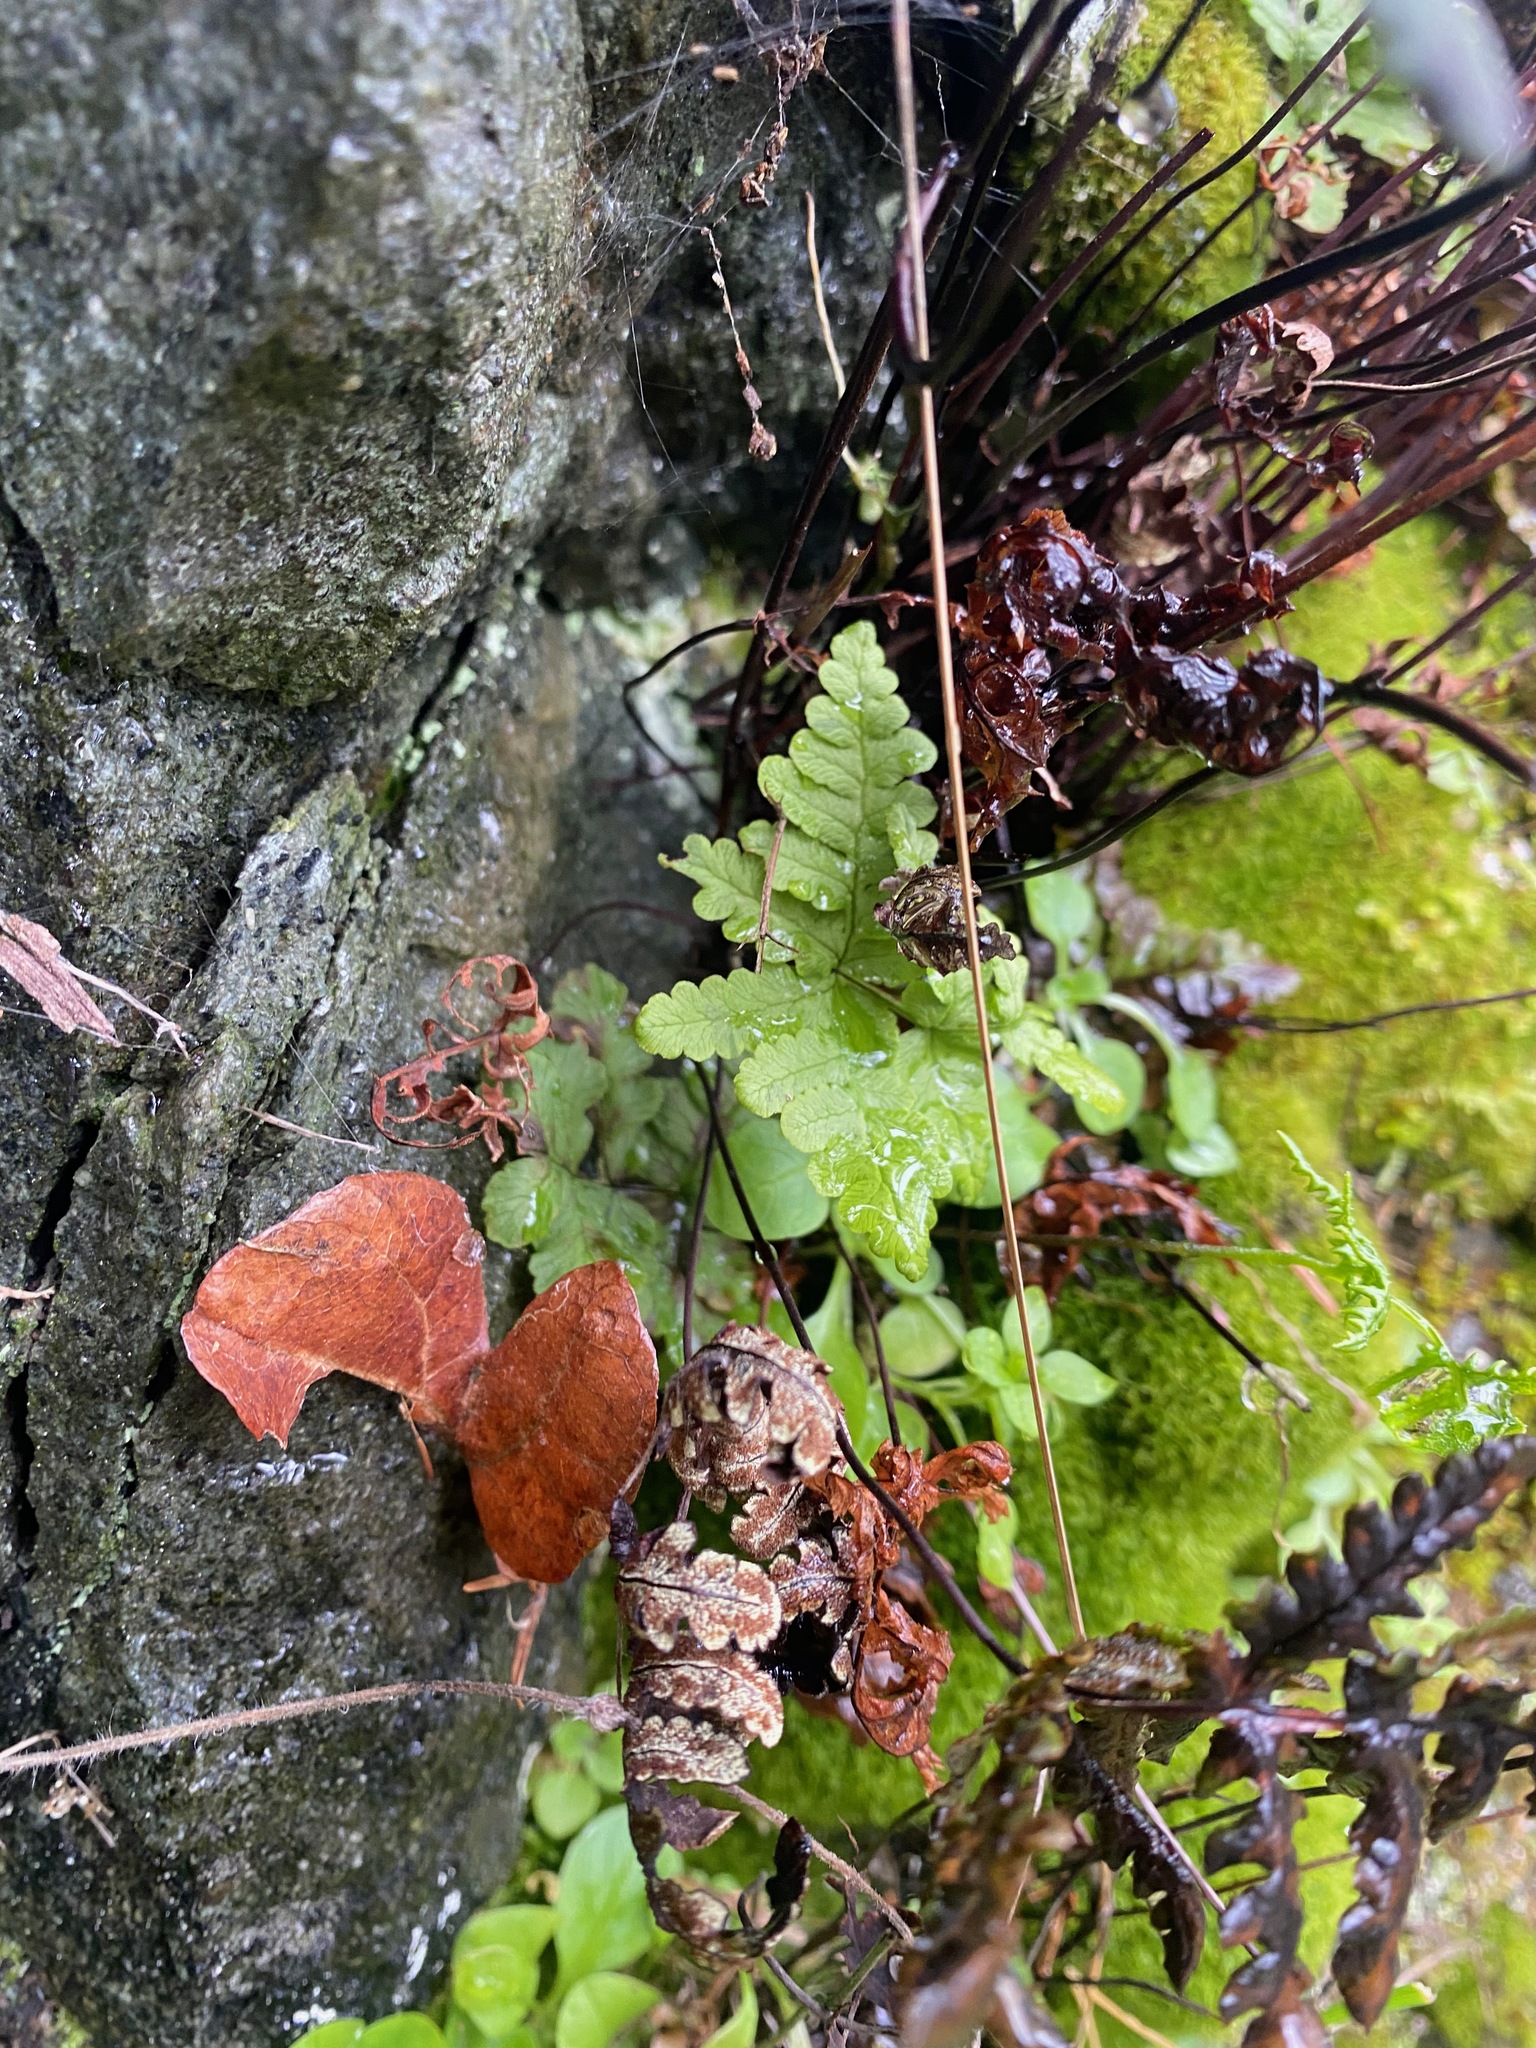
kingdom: Plantae
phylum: Tracheophyta
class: Polypodiopsida
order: Polypodiales
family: Pteridaceae
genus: Pentagramma
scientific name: Pentagramma triangularis
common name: Gold fern
